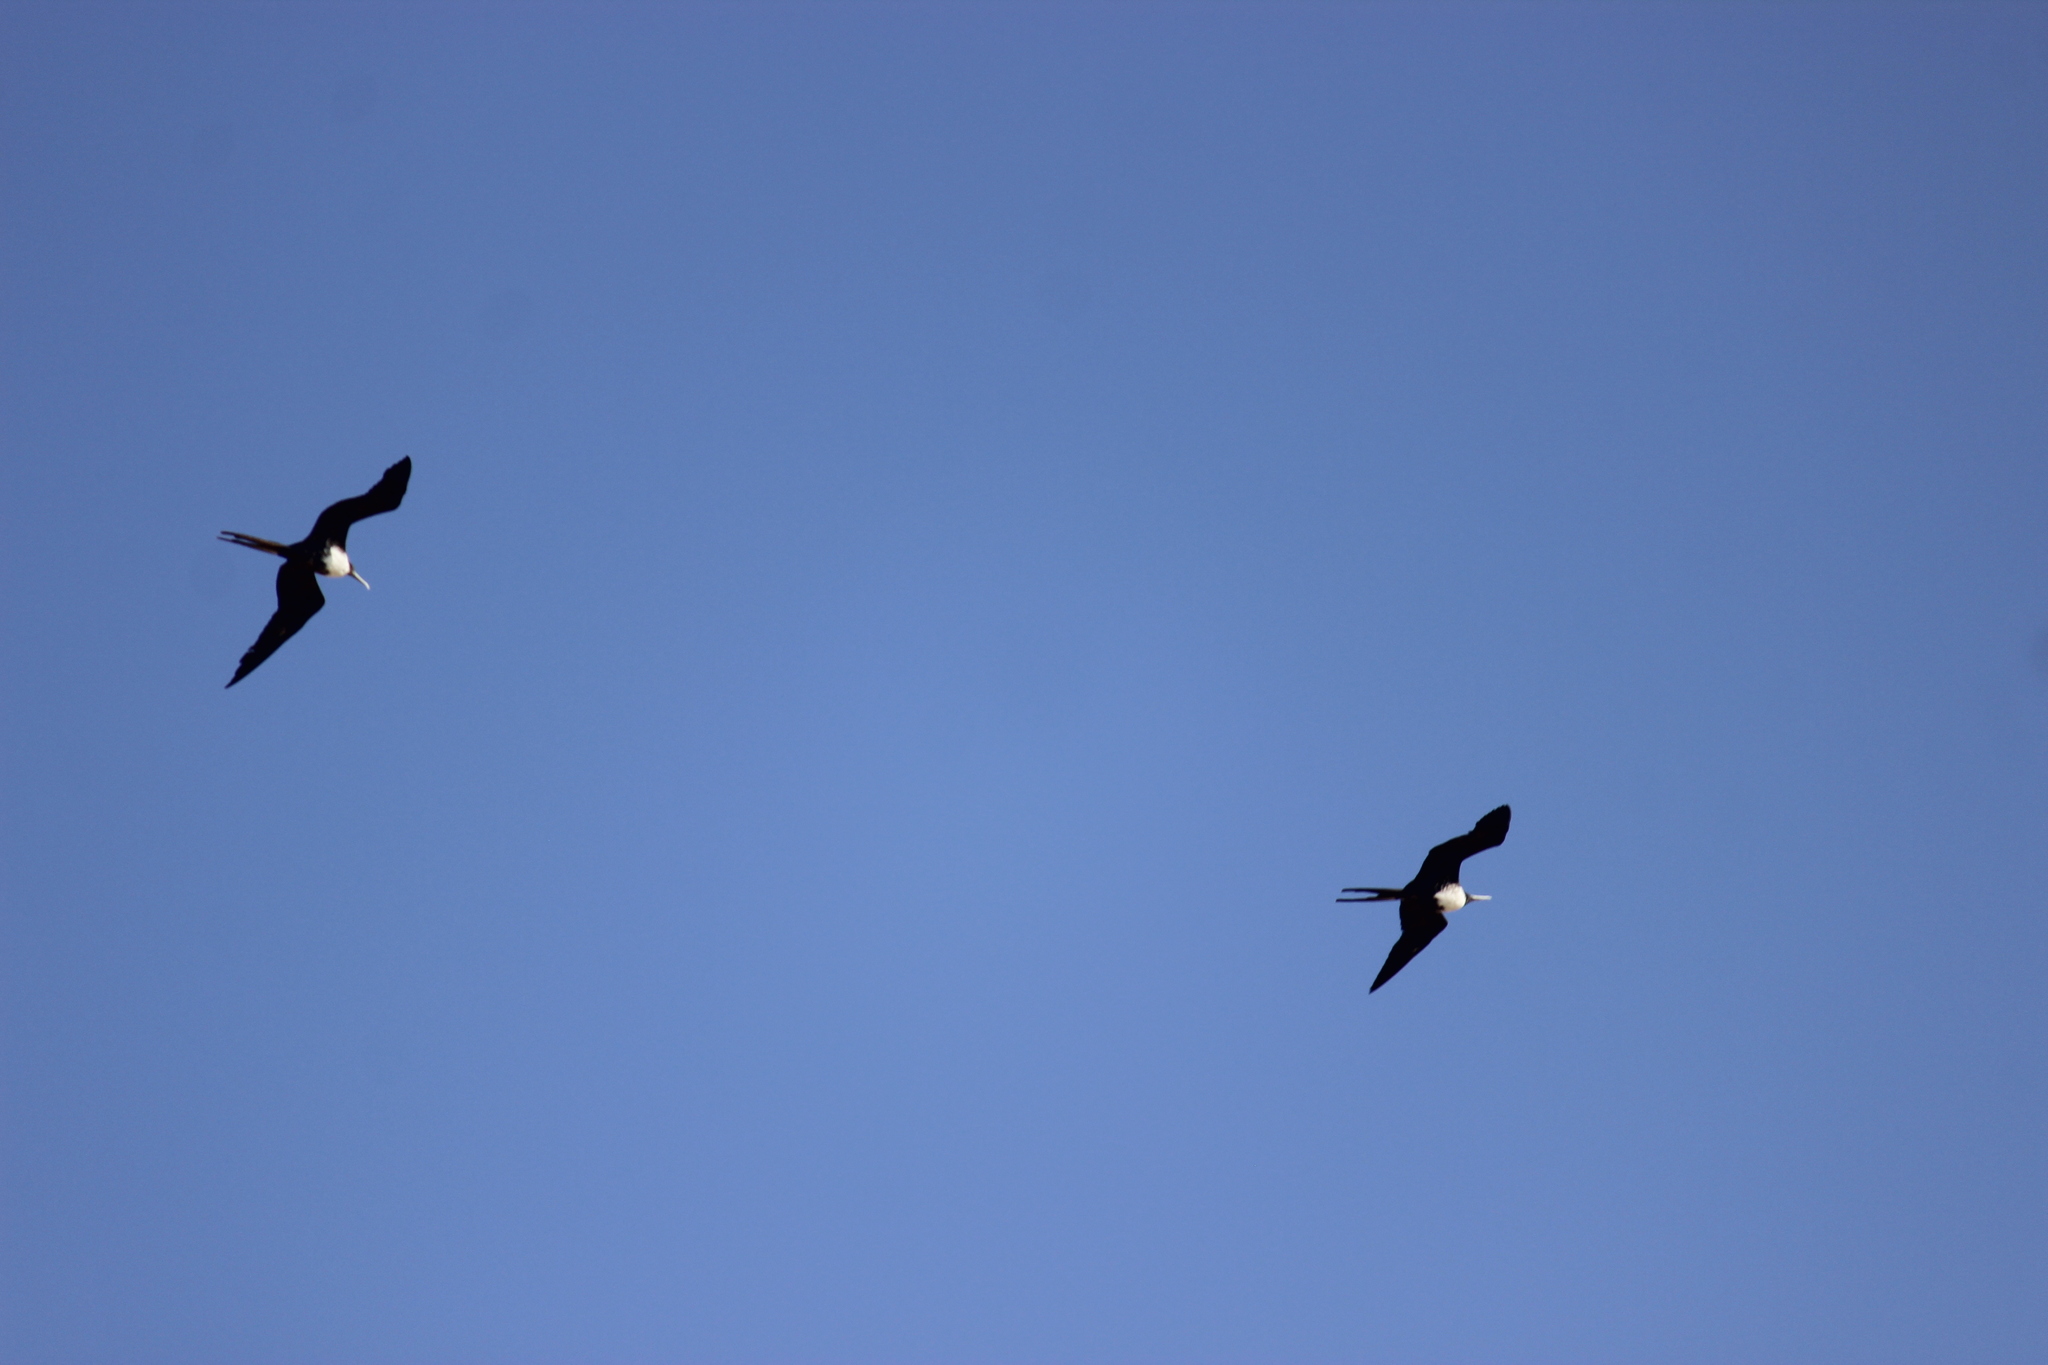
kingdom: Animalia
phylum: Chordata
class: Aves
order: Suliformes
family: Fregatidae
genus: Fregata
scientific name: Fregata magnificens
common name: Magnificent frigatebird
